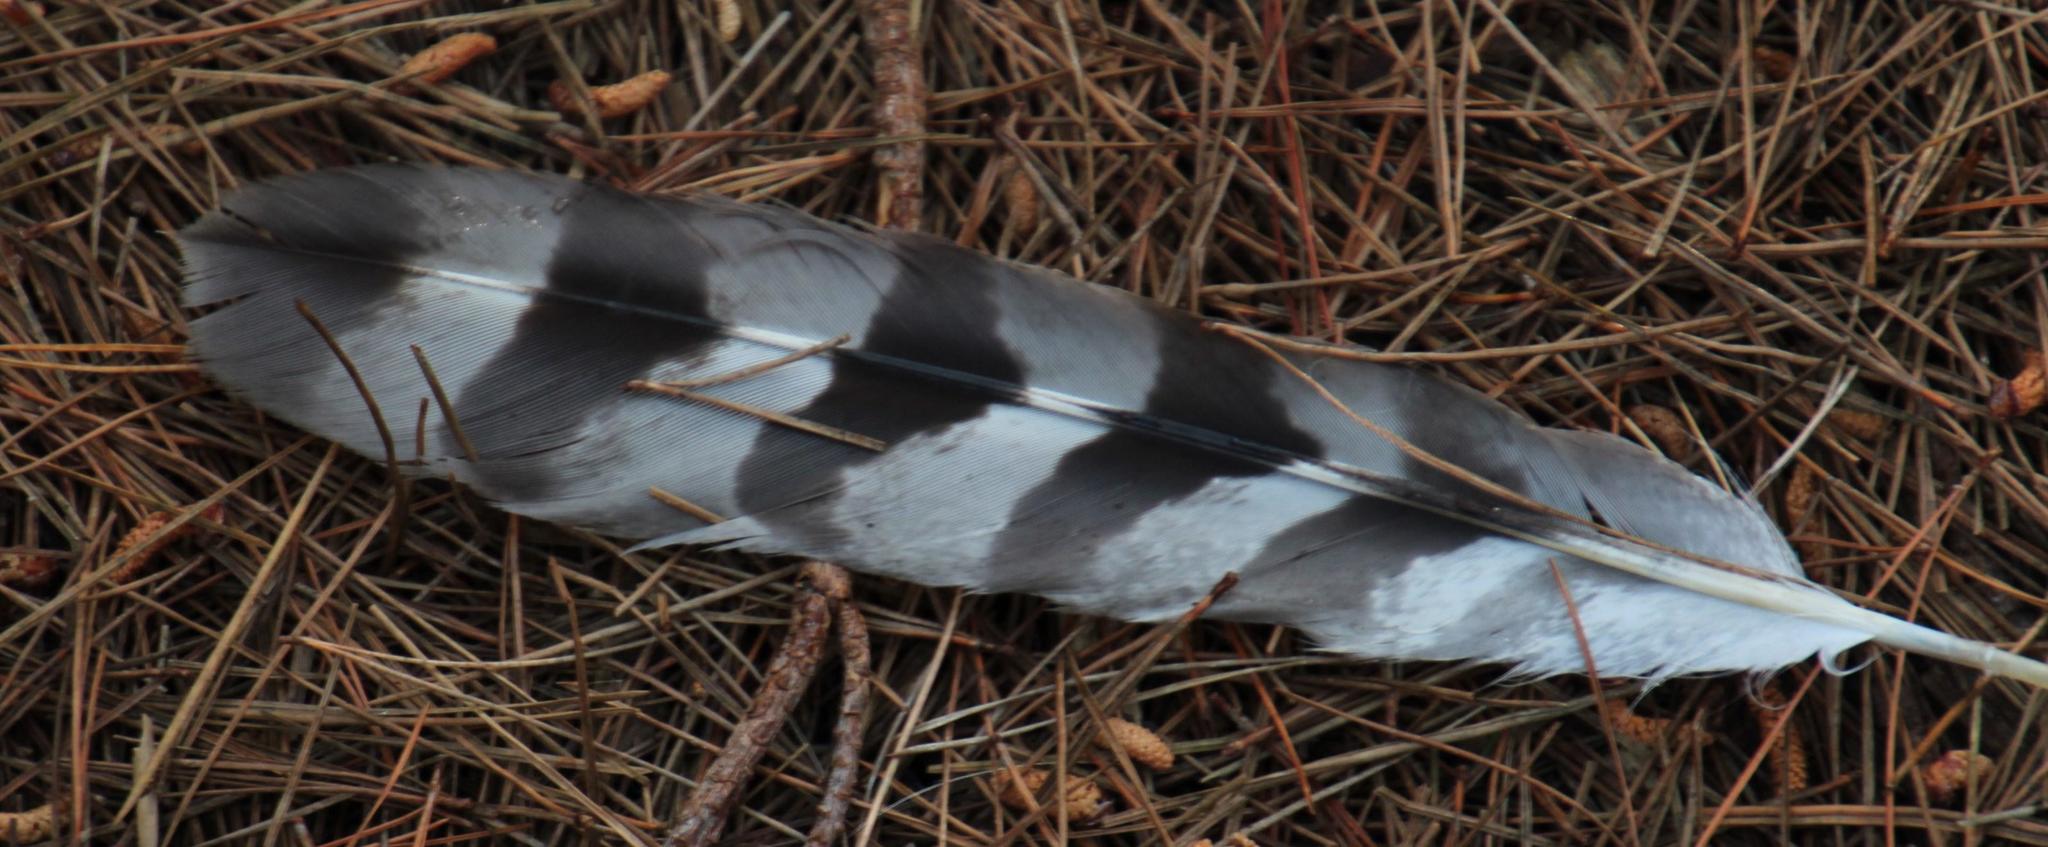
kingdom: Animalia
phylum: Chordata
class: Aves
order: Accipitriformes
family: Accipitridae
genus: Accipiter
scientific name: Accipiter melanoleucus
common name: Black sparrowhawk
